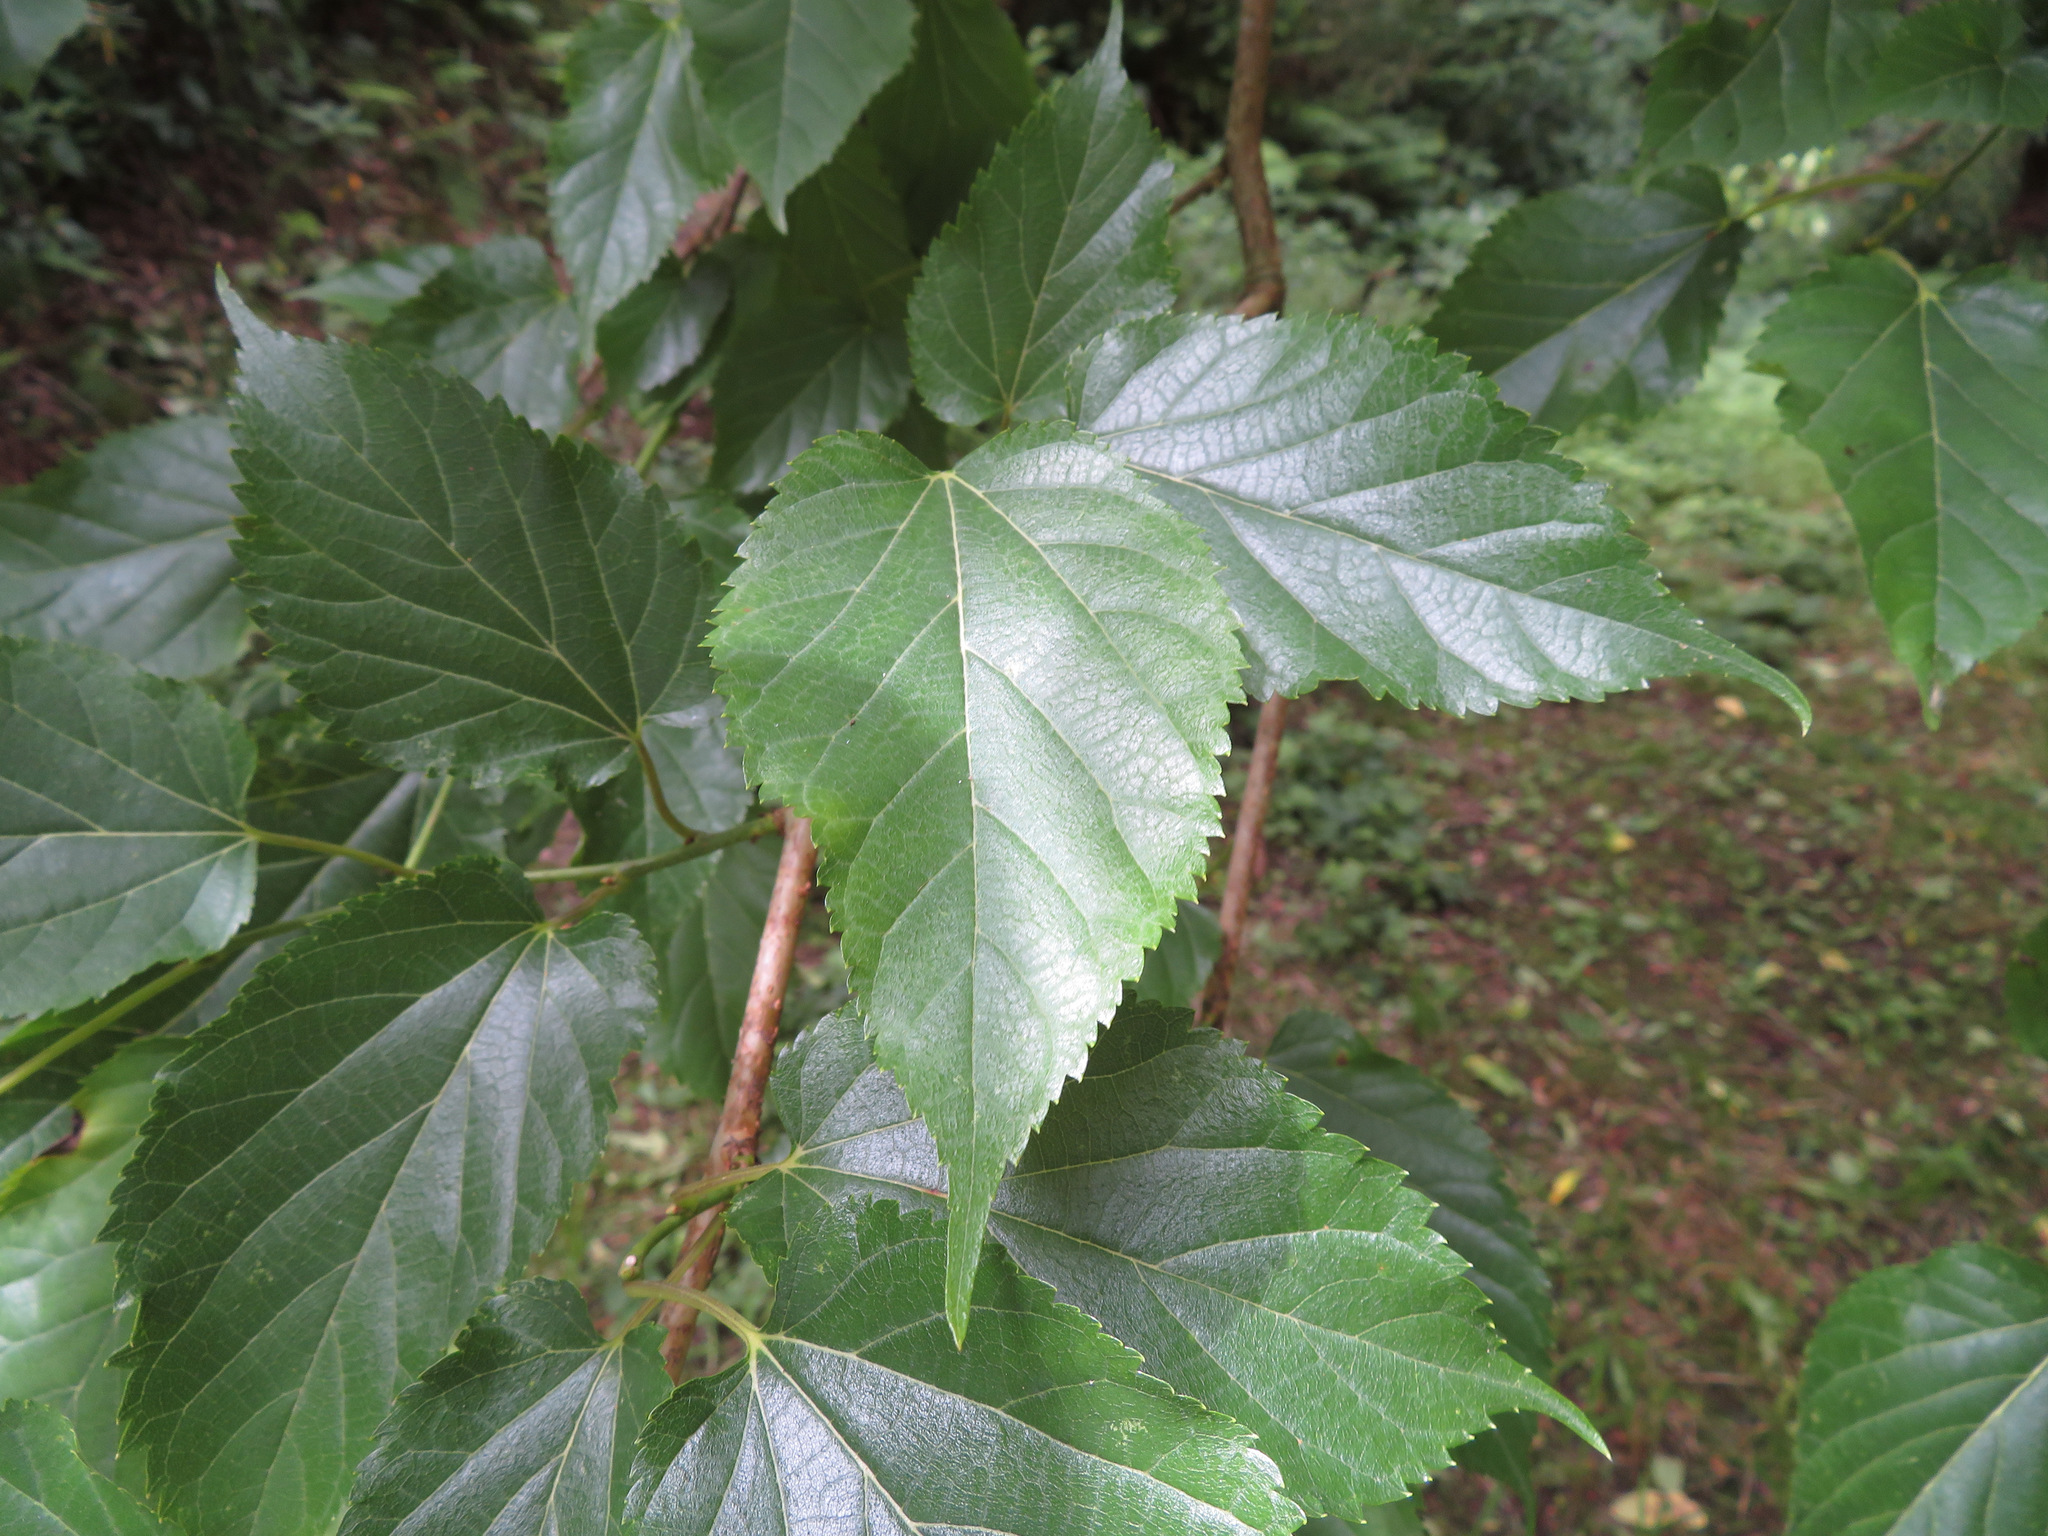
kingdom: Plantae
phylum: Tracheophyta
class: Magnoliopsida
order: Rosales
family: Moraceae
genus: Morus
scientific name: Morus indica
